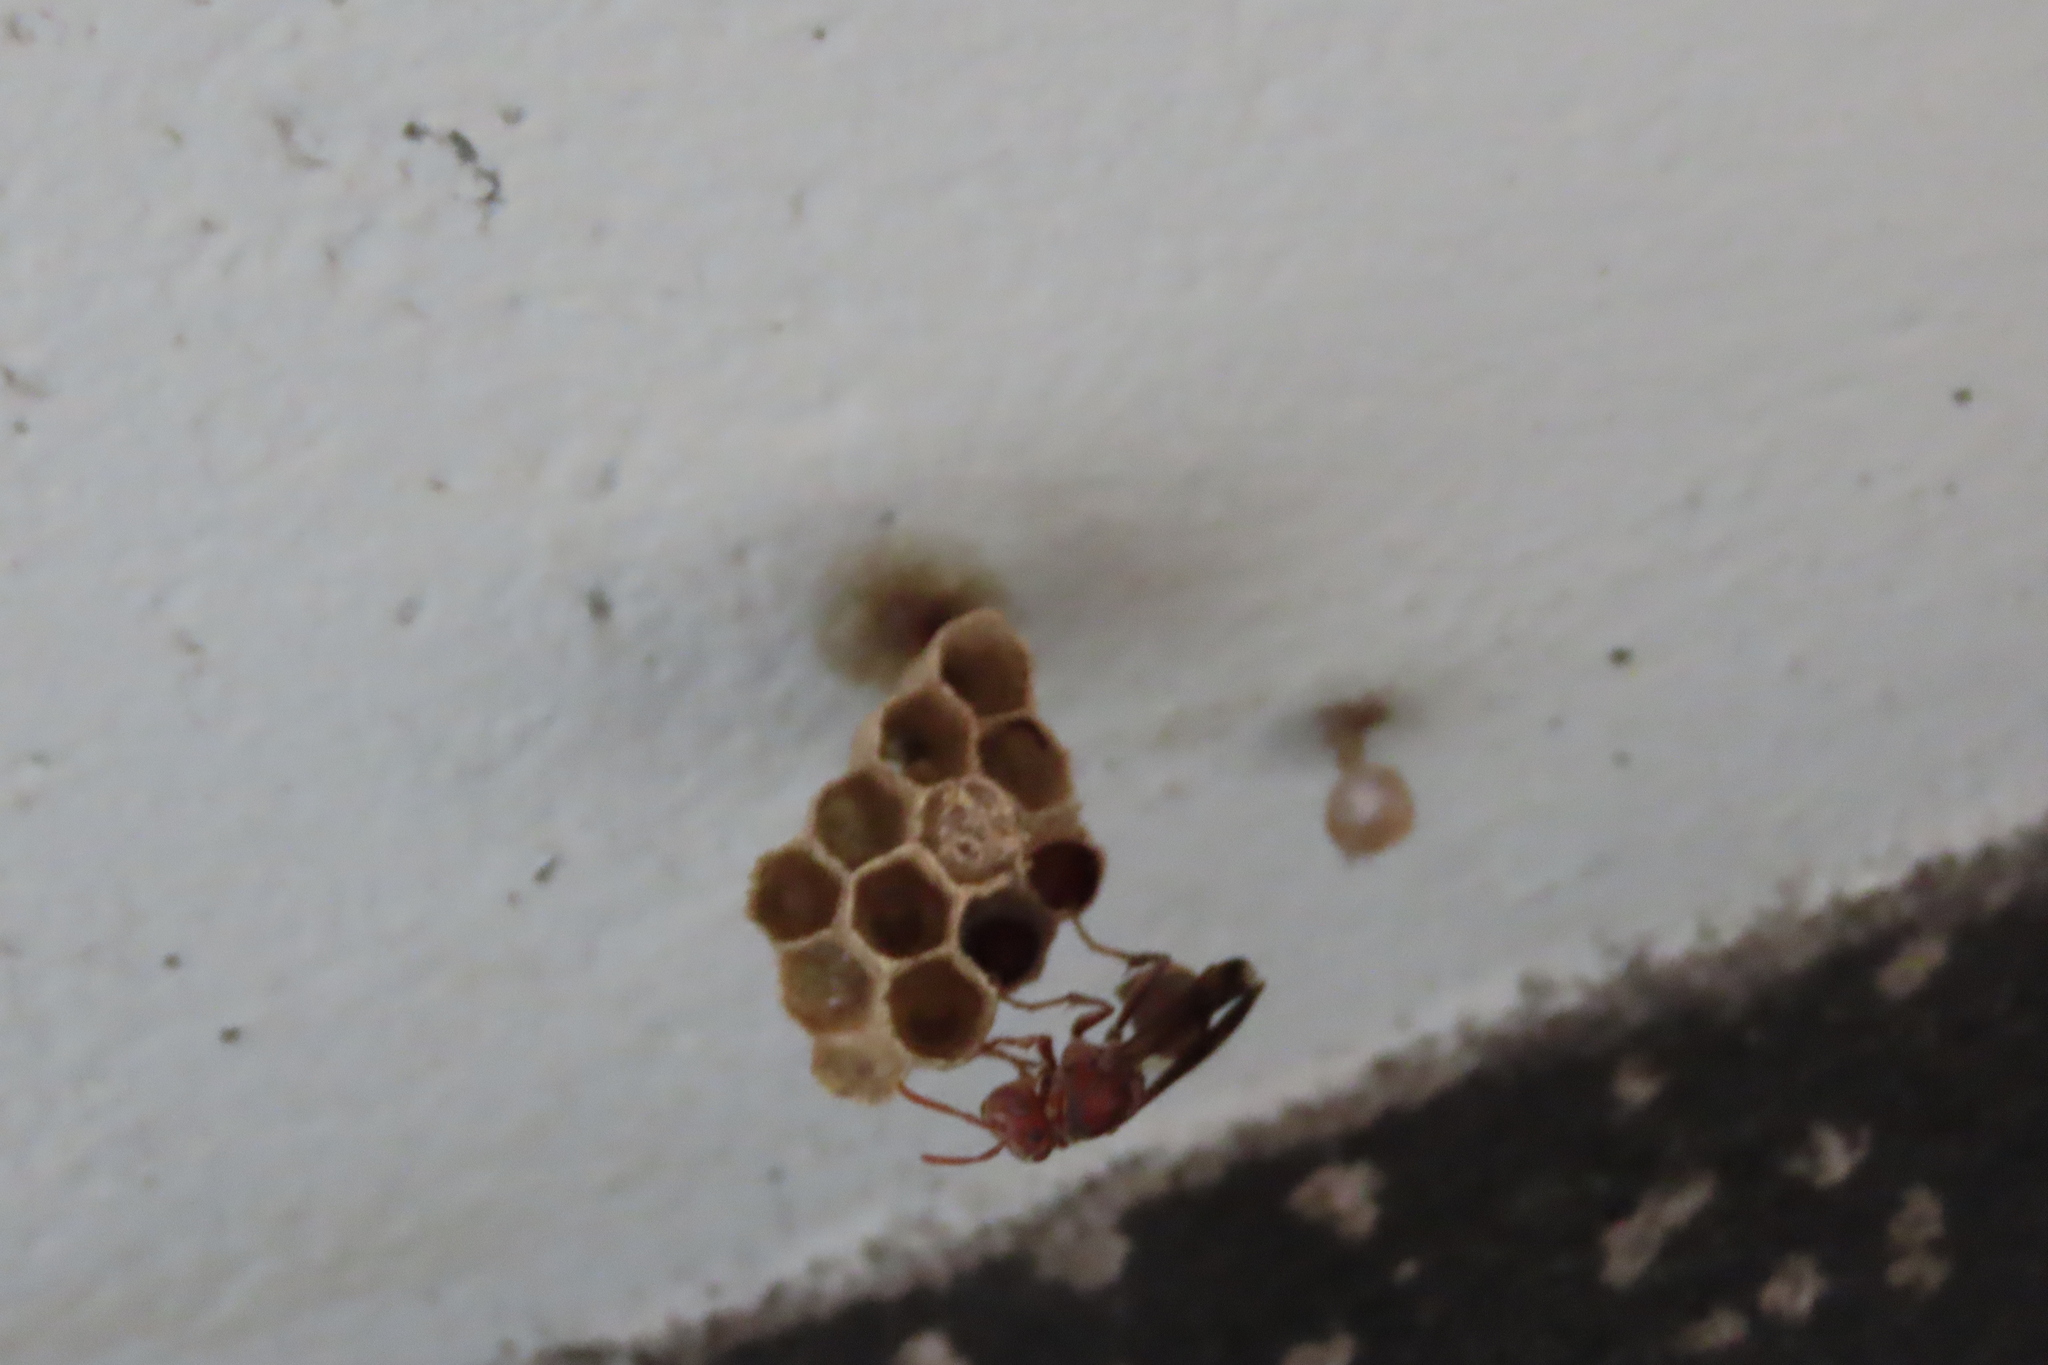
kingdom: Animalia
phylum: Arthropoda
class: Insecta
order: Hymenoptera
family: Vespidae
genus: Ropalidia
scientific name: Ropalidia
